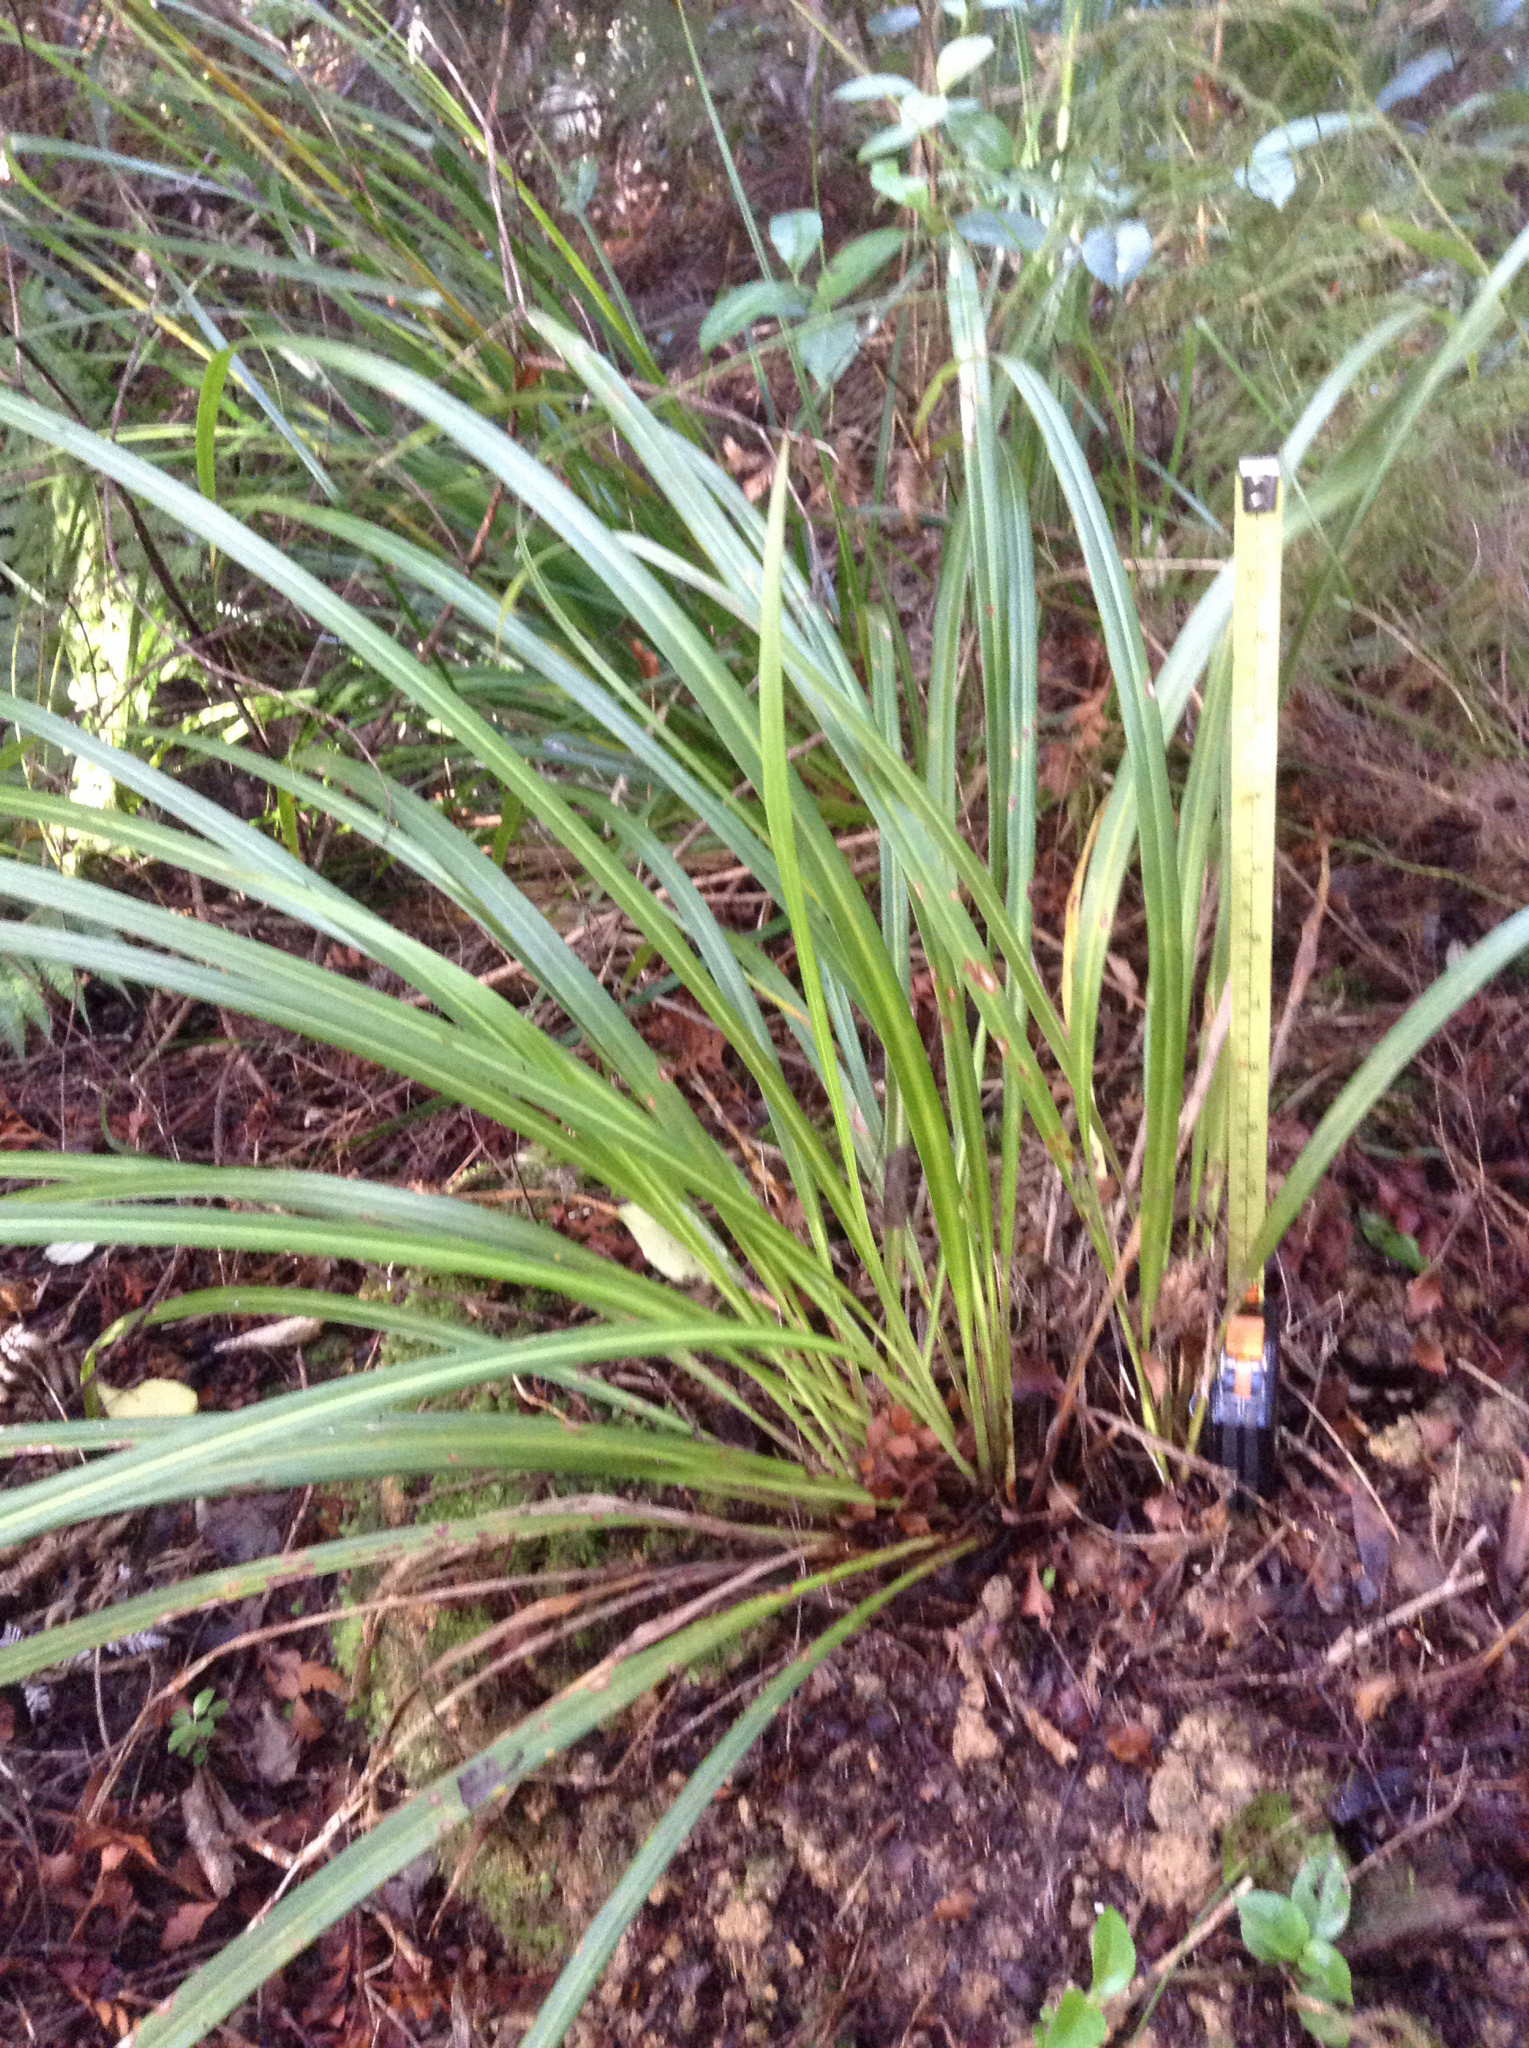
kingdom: Plantae
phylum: Tracheophyta
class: Liliopsida
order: Asparagales
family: Asparagaceae
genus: Cordyline
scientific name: Cordyline pumilio
